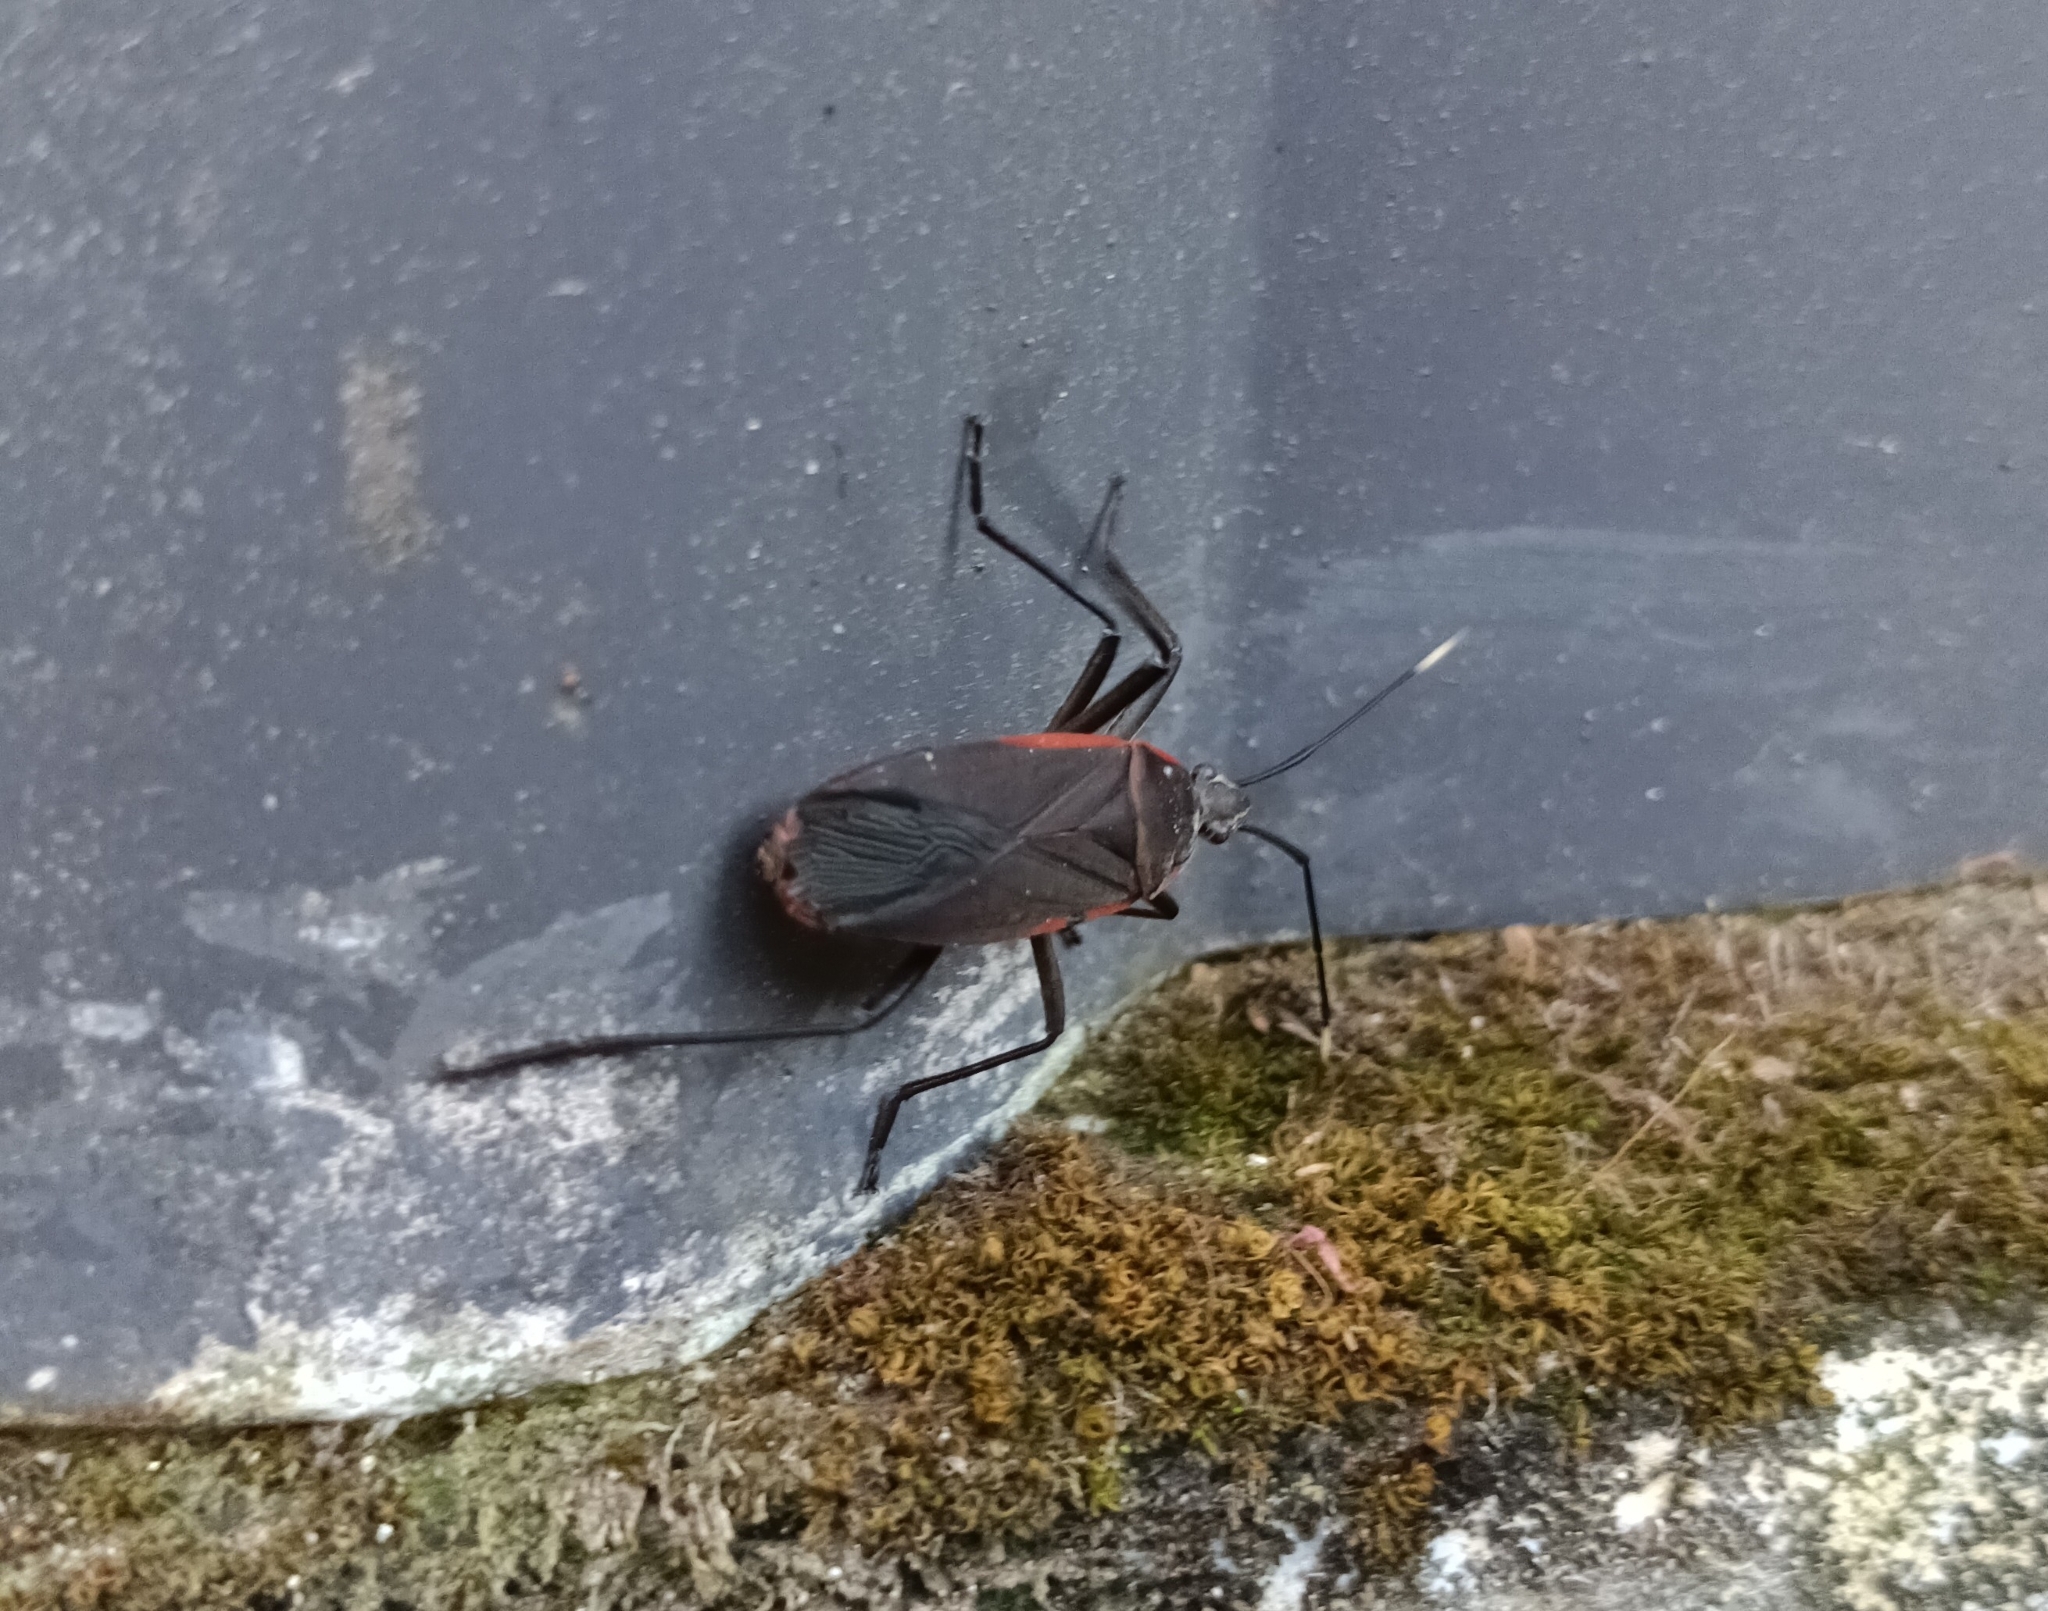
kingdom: Animalia
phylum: Arthropoda
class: Insecta
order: Hemiptera
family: Pyrrhocoridae
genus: Melamphaus
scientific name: Melamphaus
